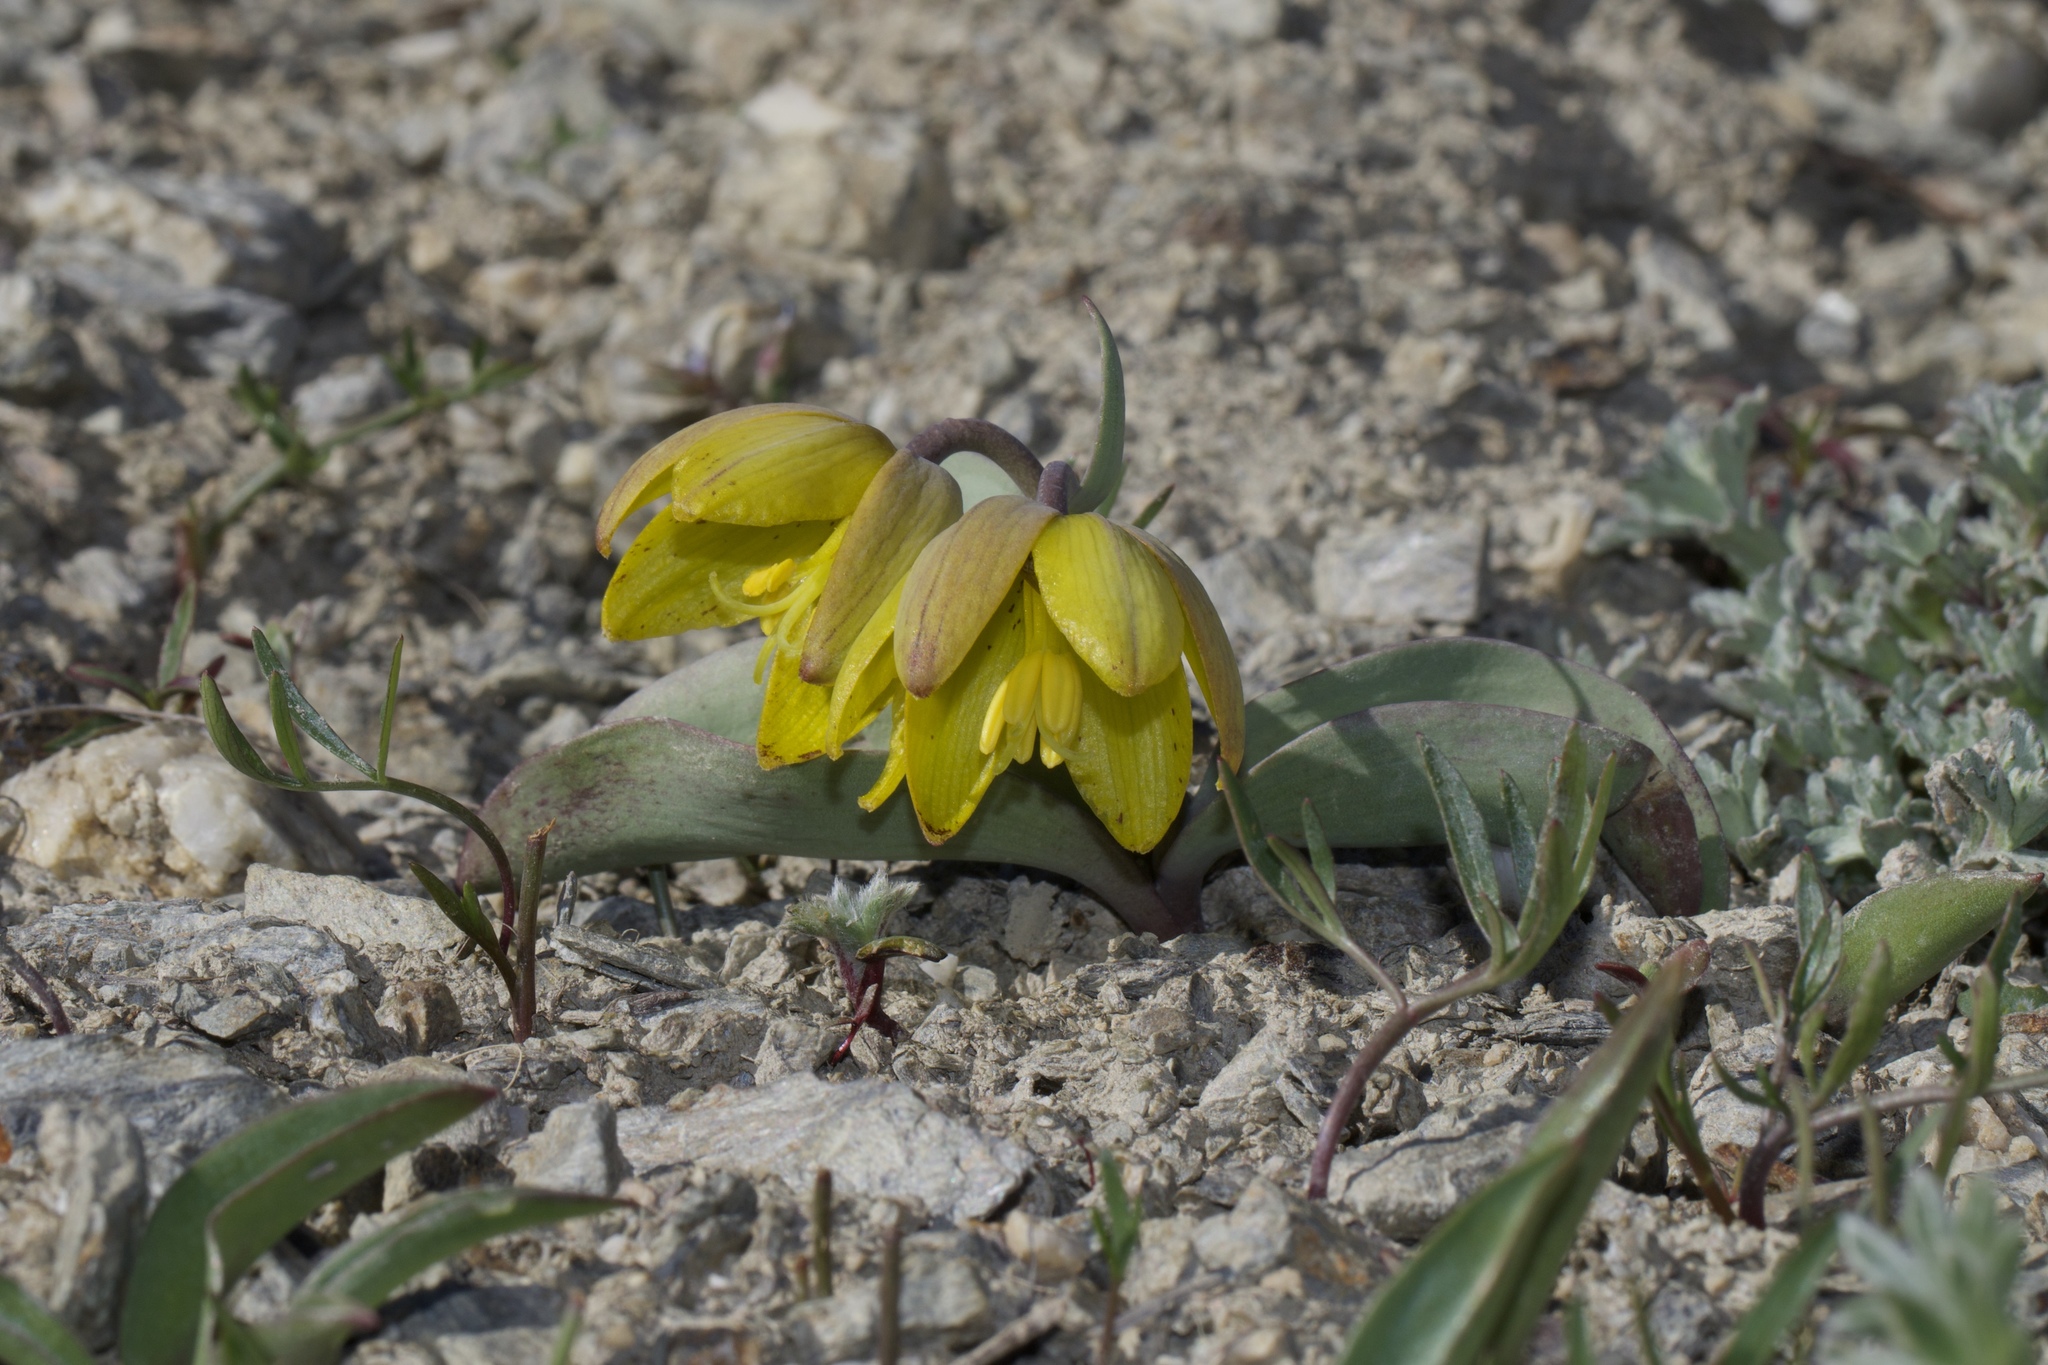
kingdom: Plantae
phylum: Tracheophyta
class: Liliopsida
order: Liliales
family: Liliaceae
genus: Fritillaria
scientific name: Fritillaria glauca
